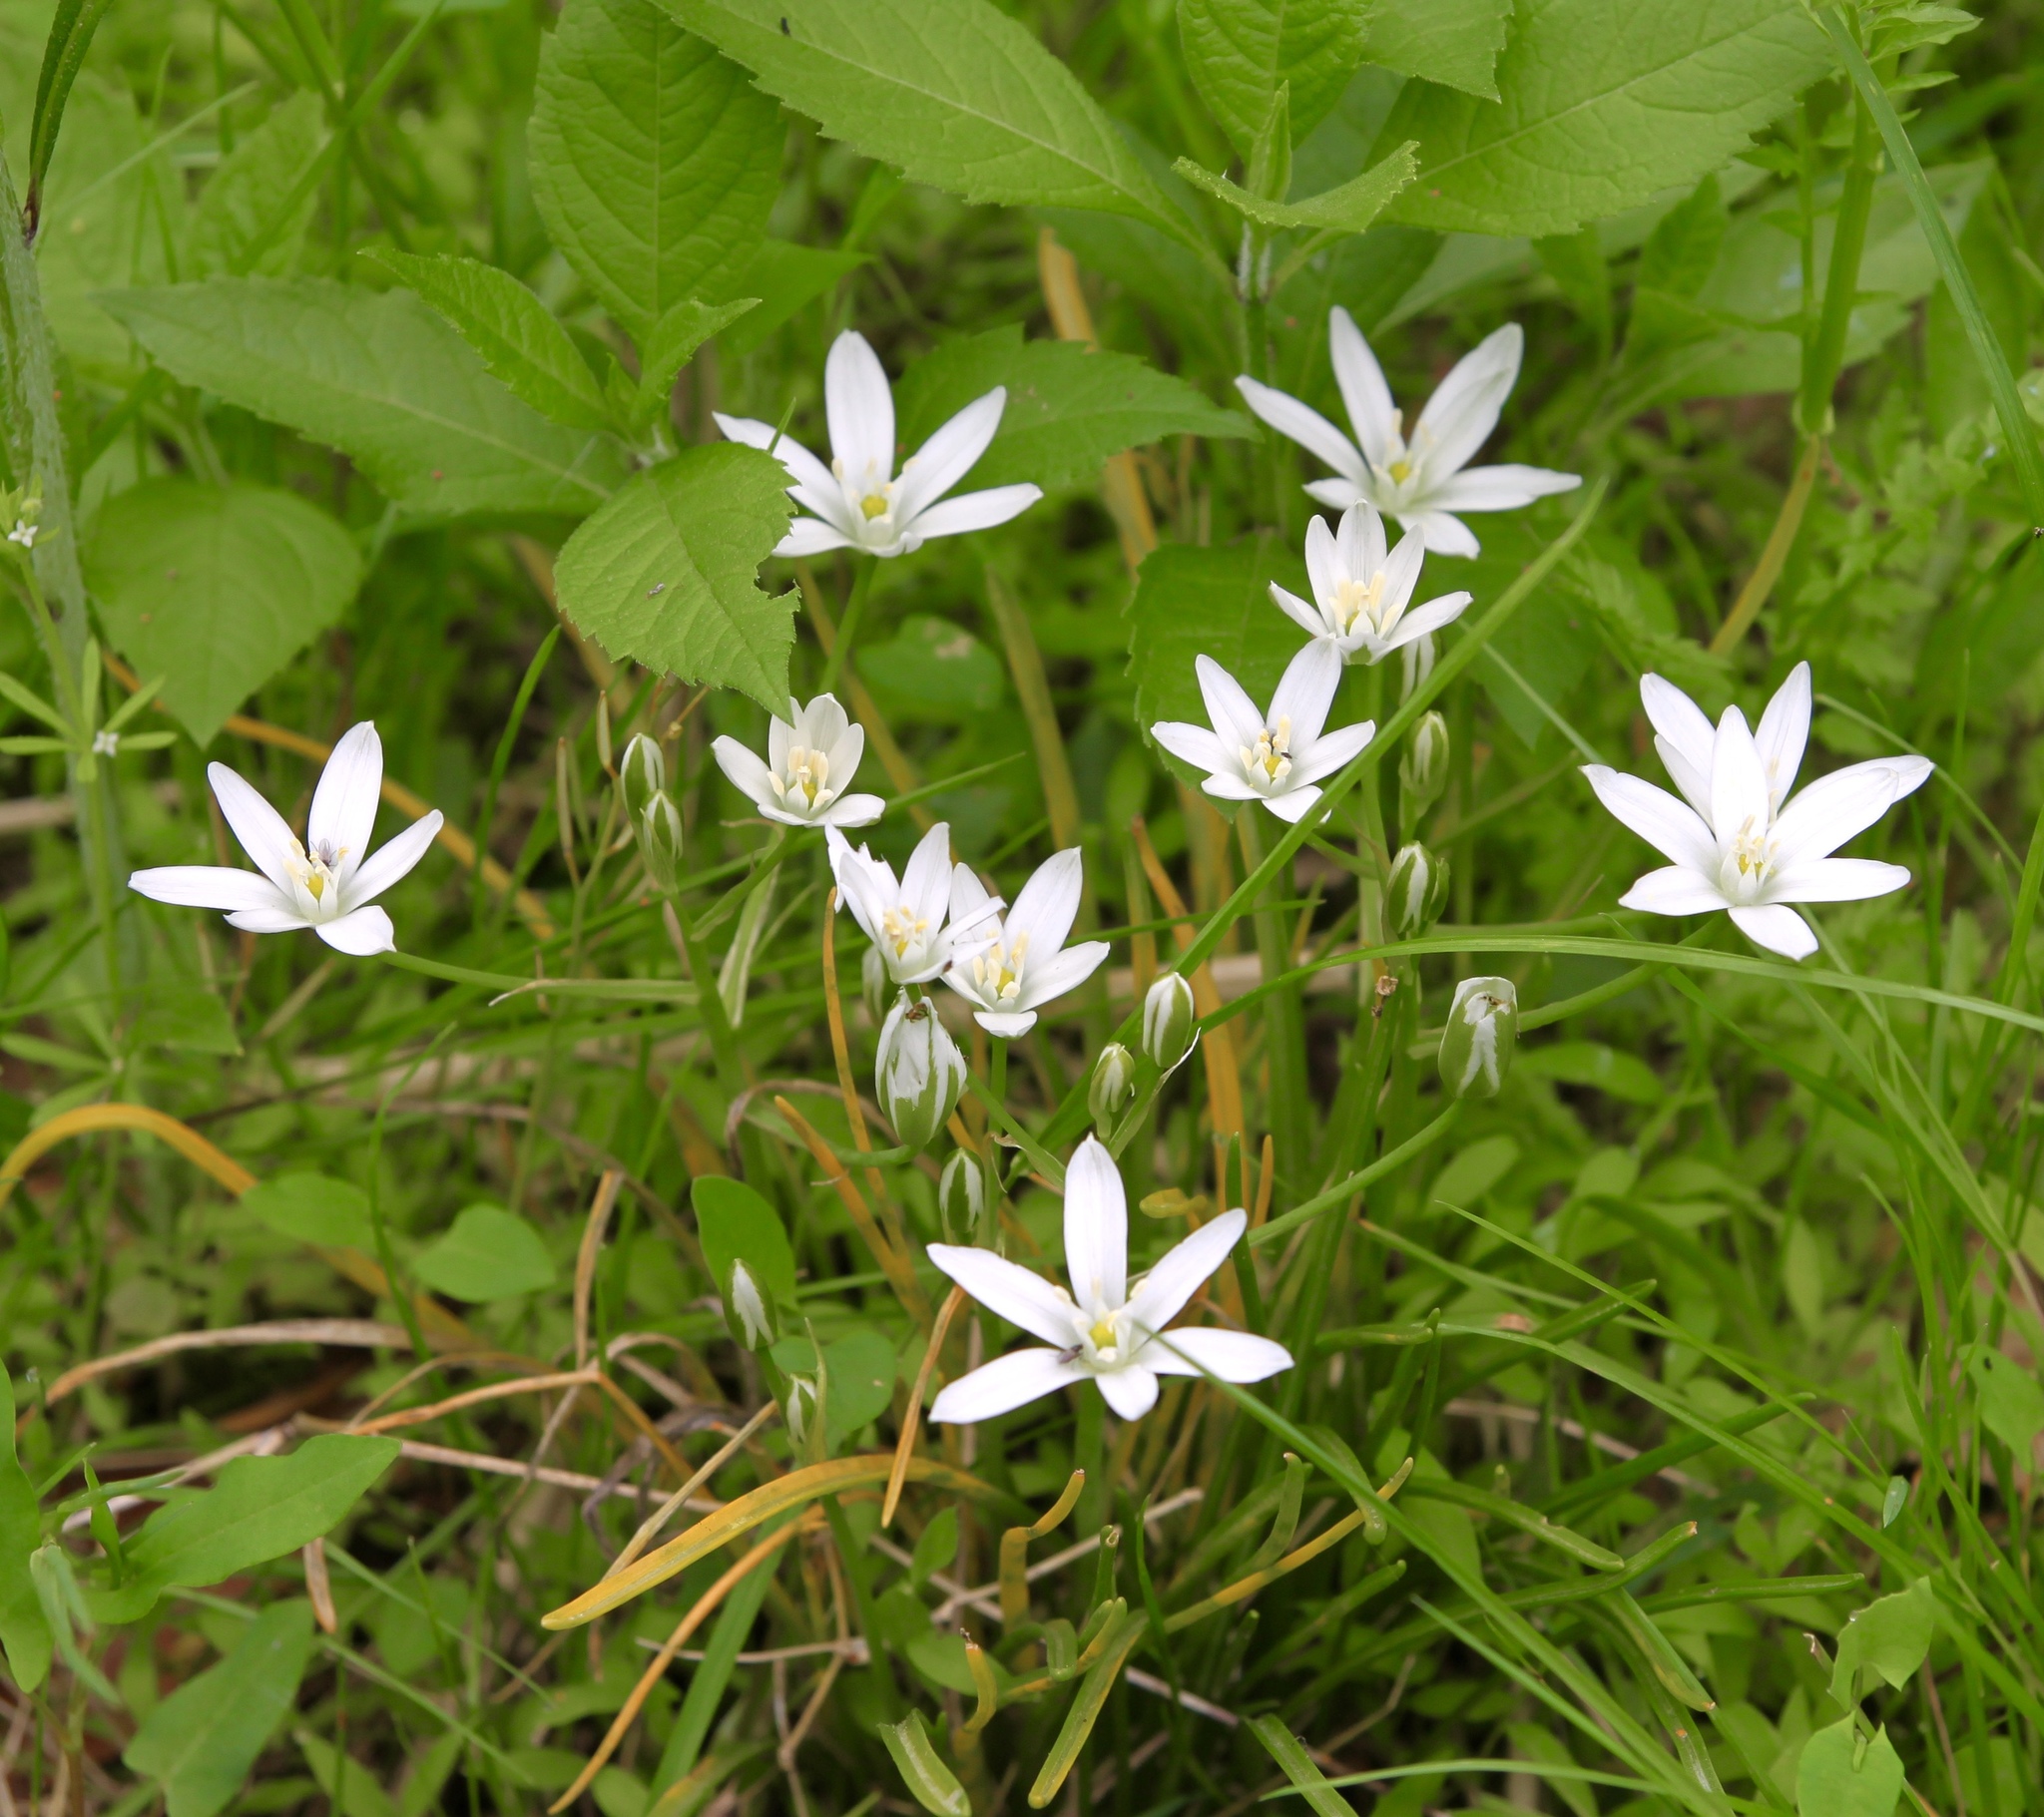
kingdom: Plantae
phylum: Tracheophyta
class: Liliopsida
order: Asparagales
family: Asparagaceae
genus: Ornithogalum
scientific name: Ornithogalum umbellatum
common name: Garden star-of-bethlehem
